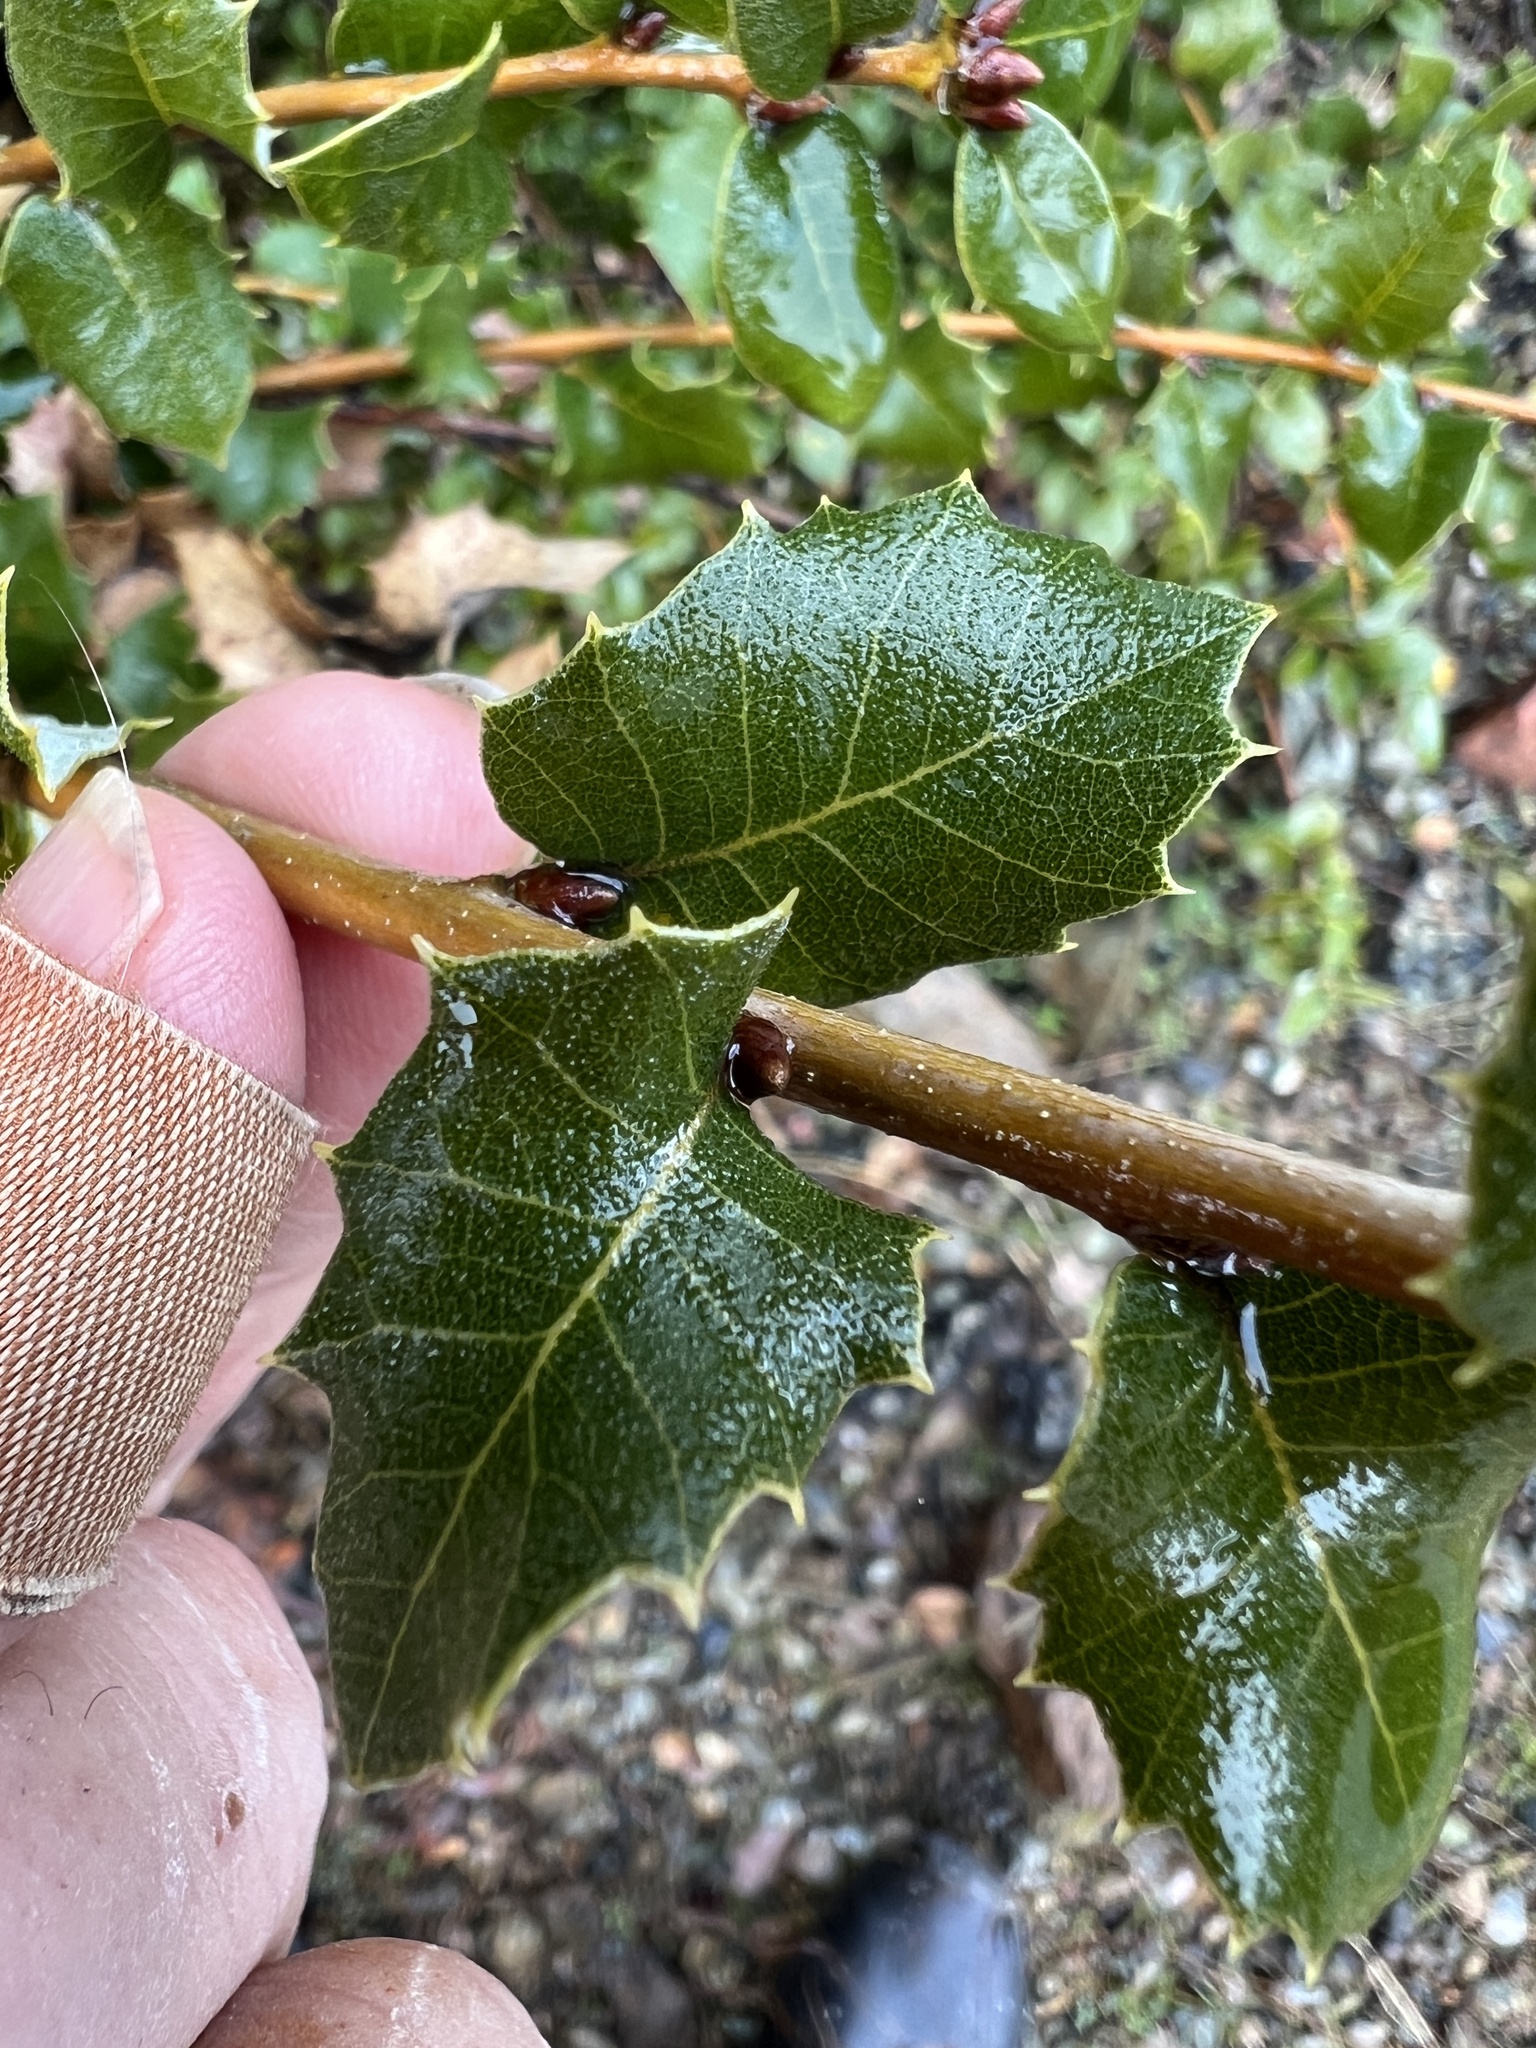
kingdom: Plantae
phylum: Tracheophyta
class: Magnoliopsida
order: Fagales
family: Fagaceae
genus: Quercus
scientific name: Quercus chrysolepis
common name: Canyon live oak
